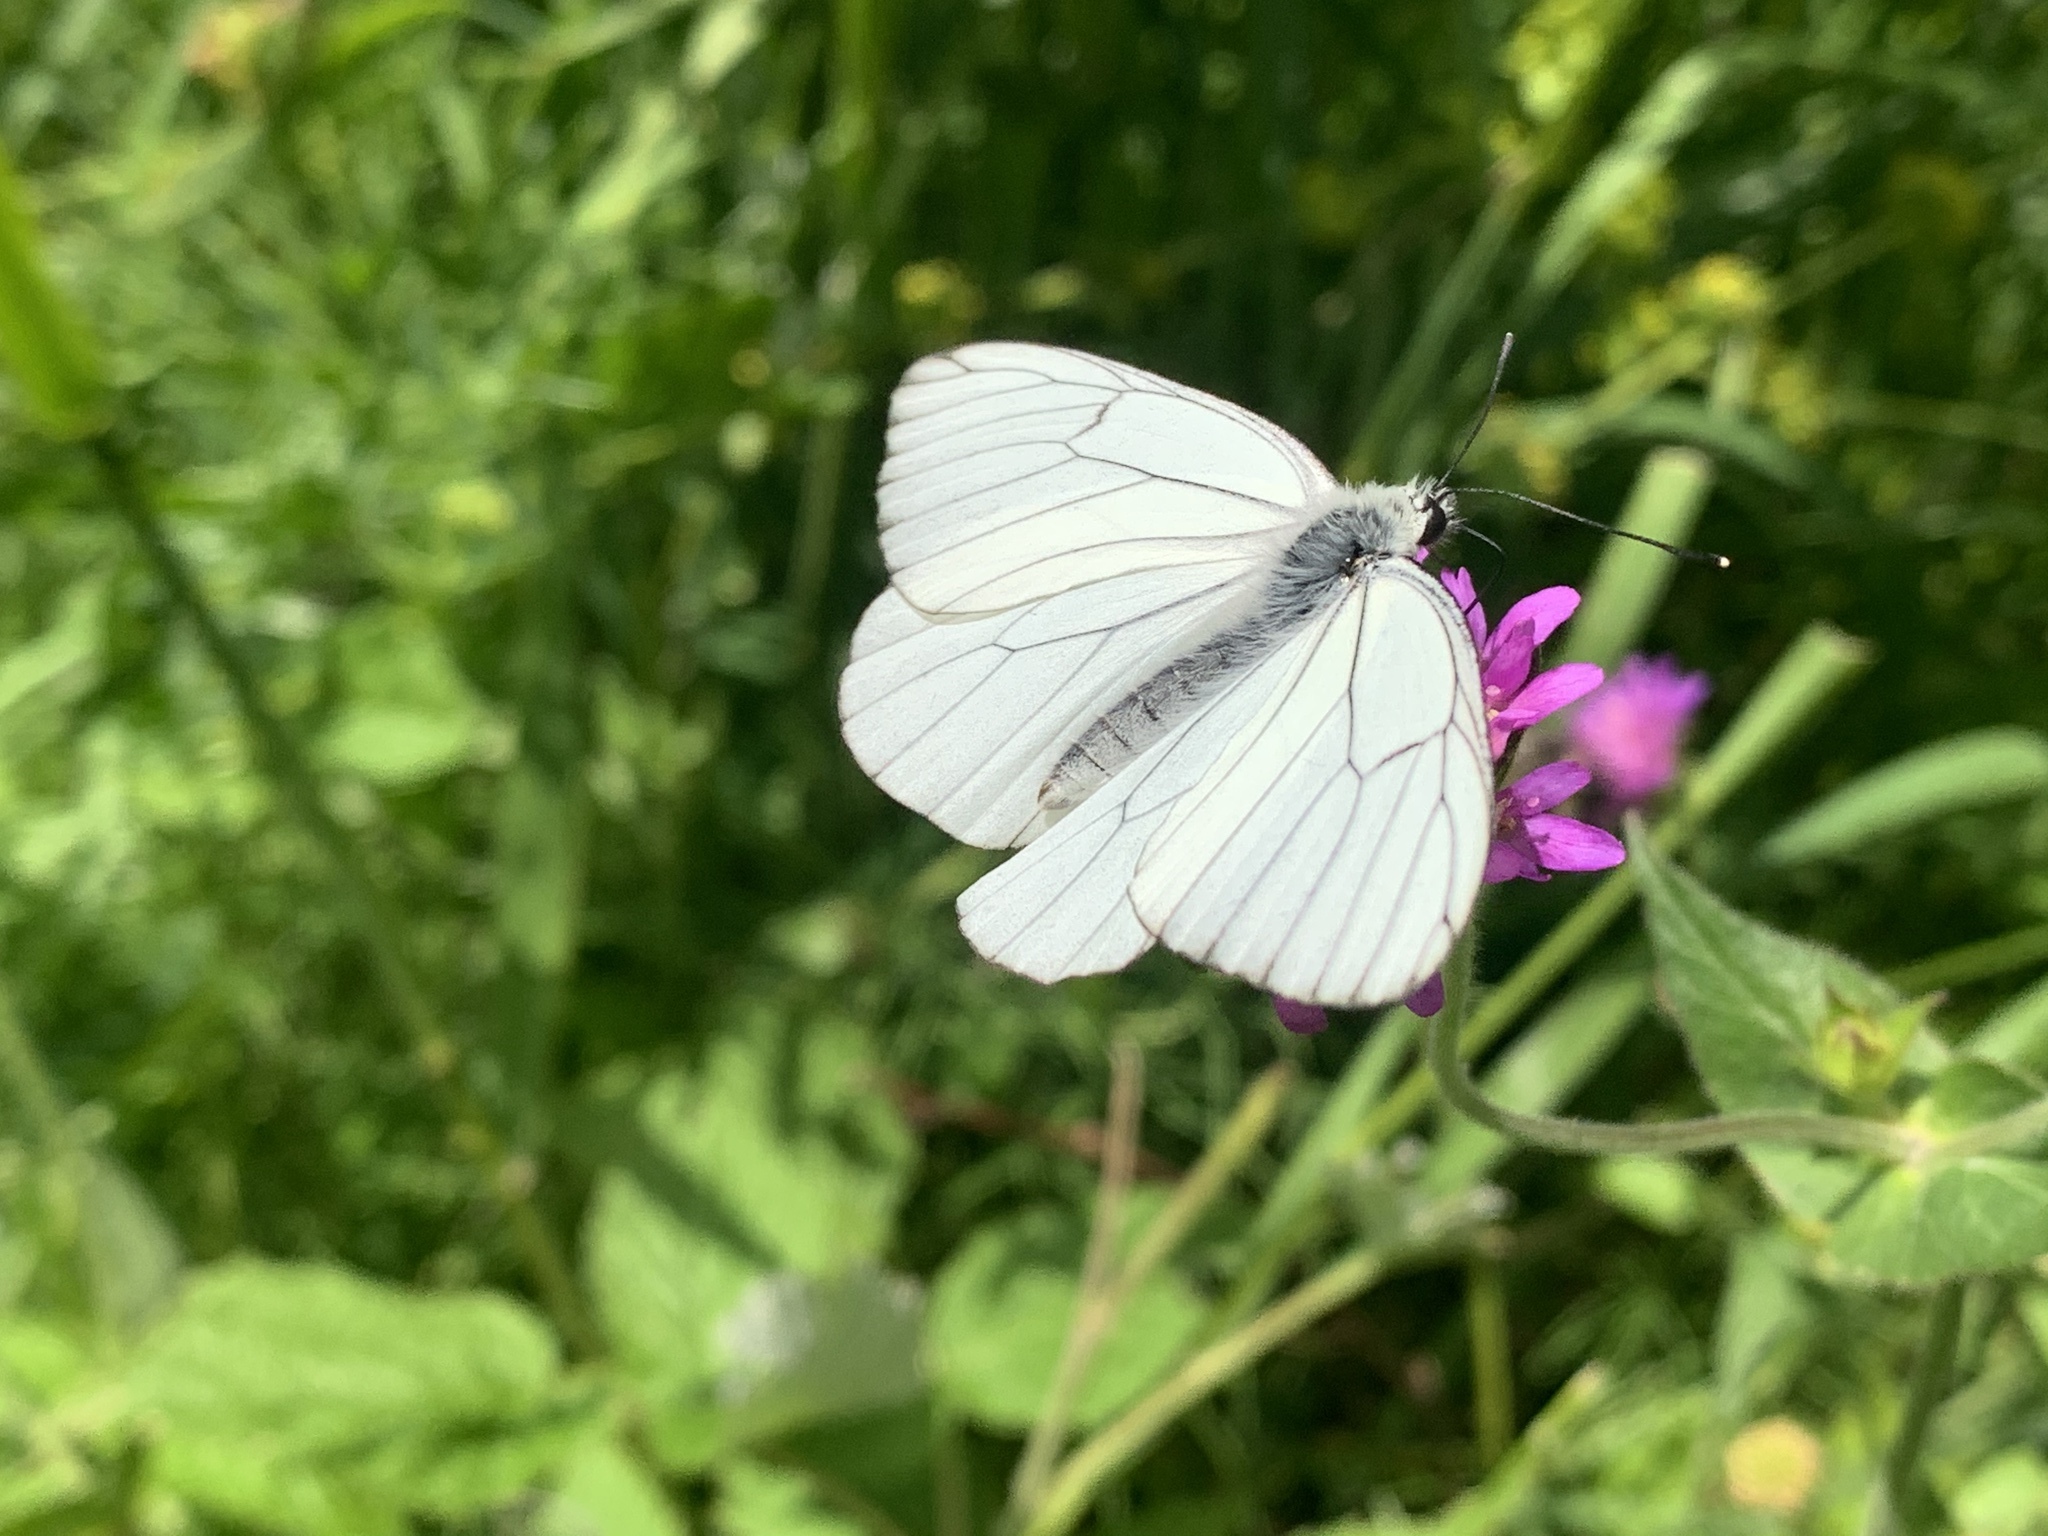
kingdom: Animalia
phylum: Arthropoda
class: Insecta
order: Lepidoptera
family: Pieridae
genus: Aporia
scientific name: Aporia crataegi
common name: Black-veined white
